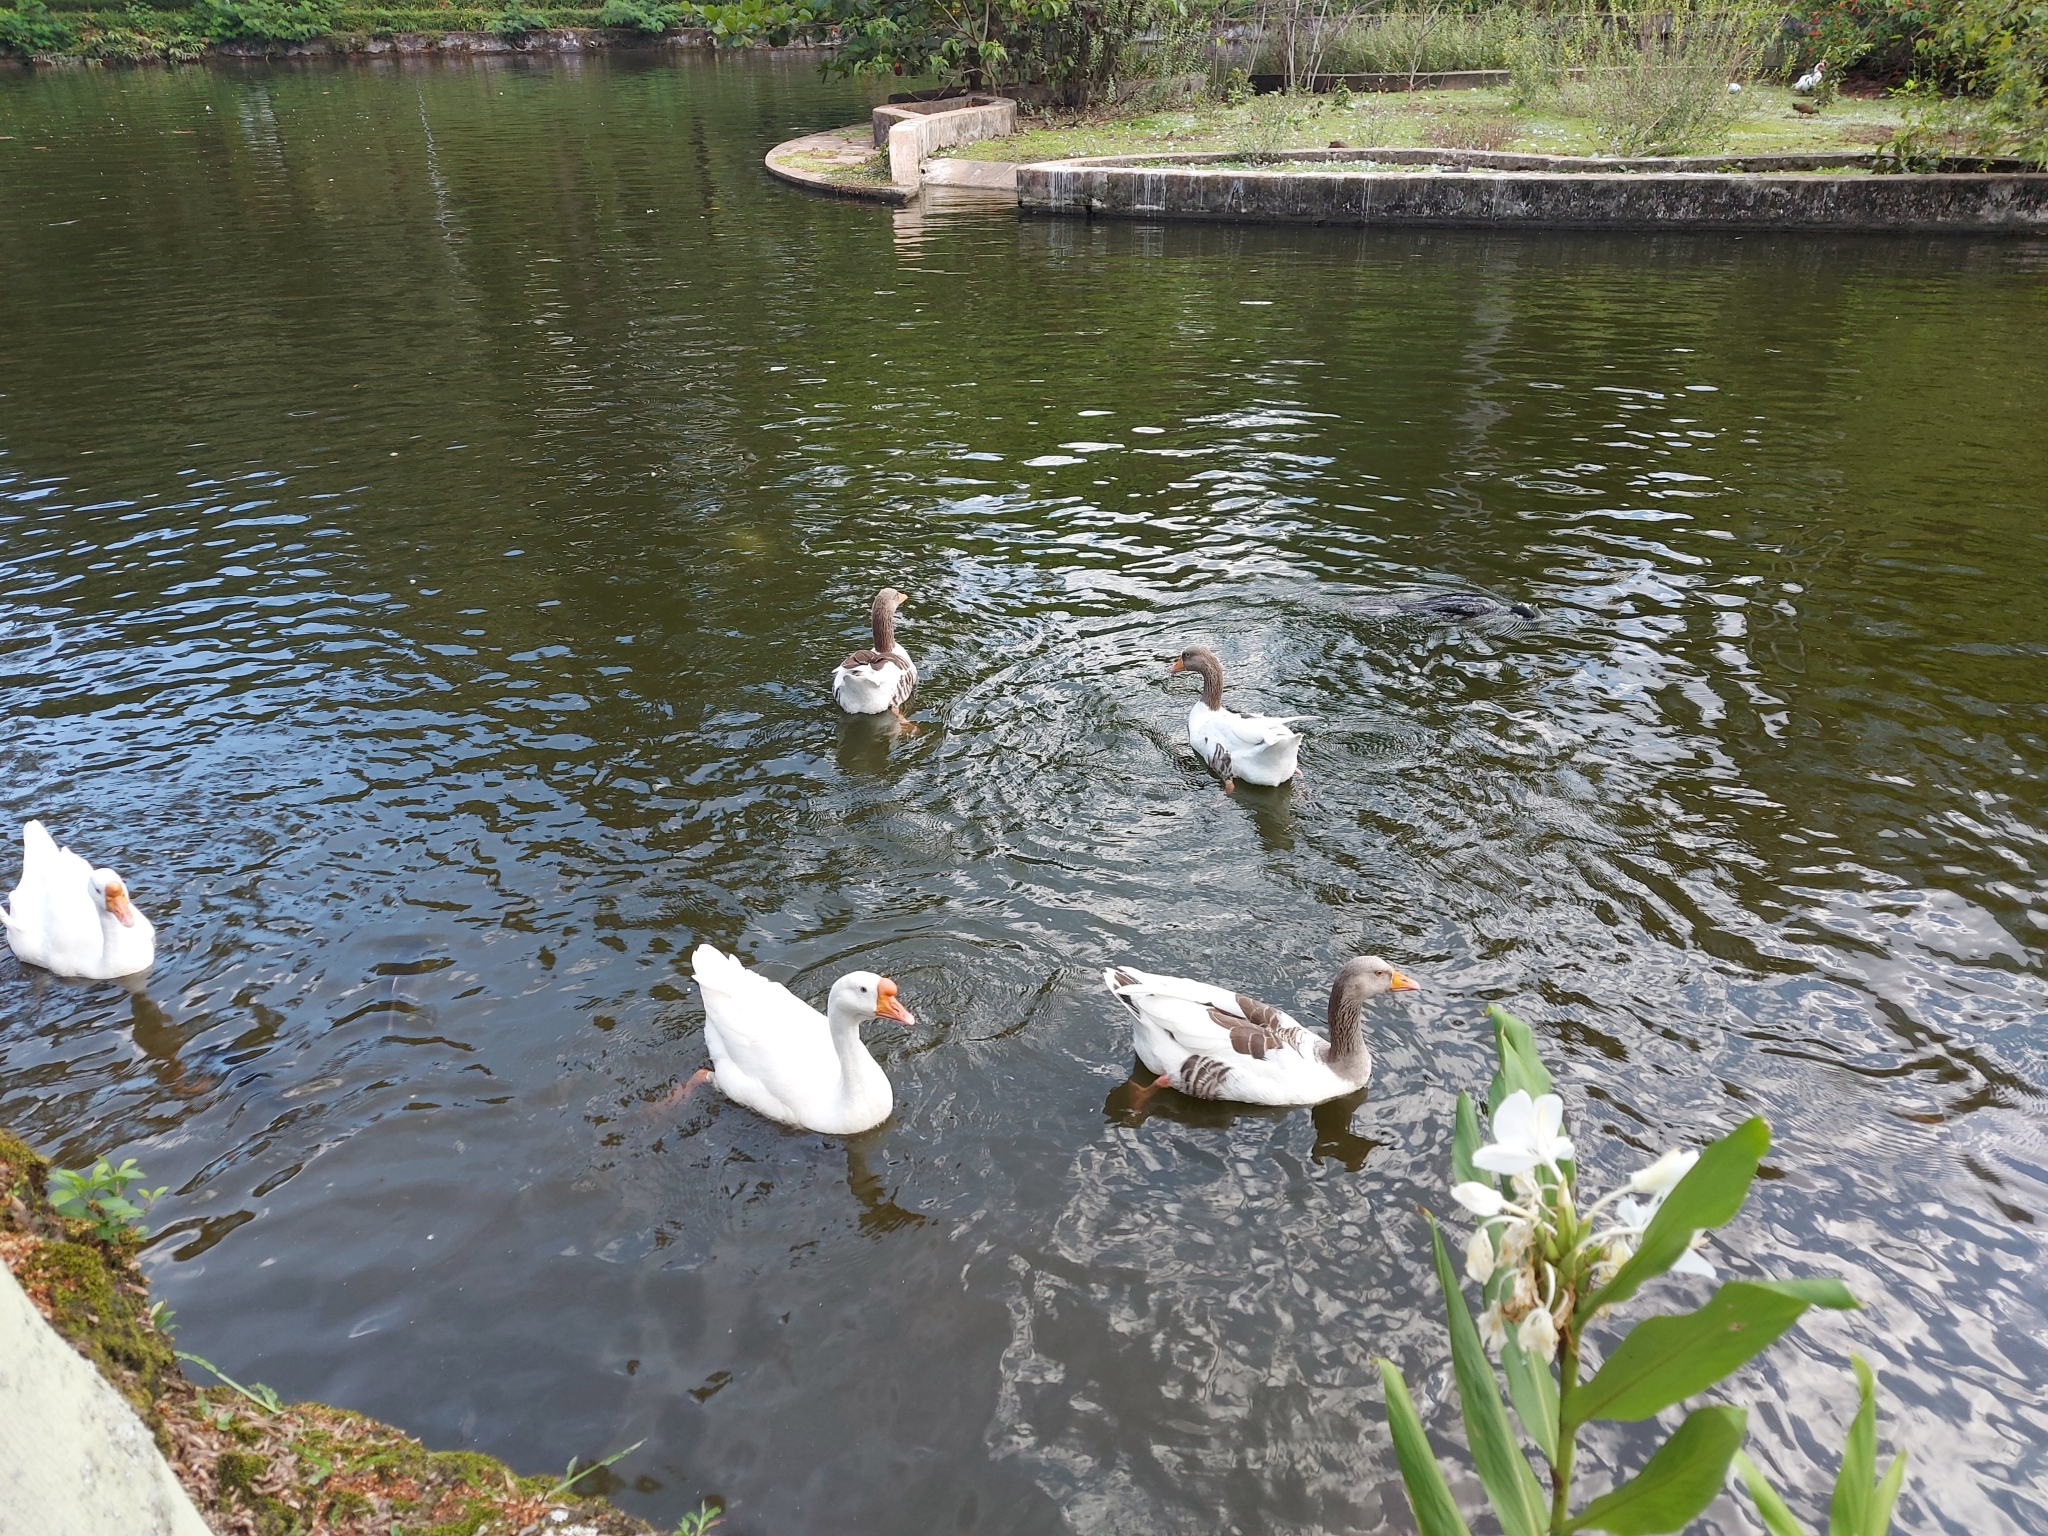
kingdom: Animalia
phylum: Chordata
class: Aves
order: Anseriformes
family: Anatidae
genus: Anser
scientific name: Anser anser
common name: Greylag goose
